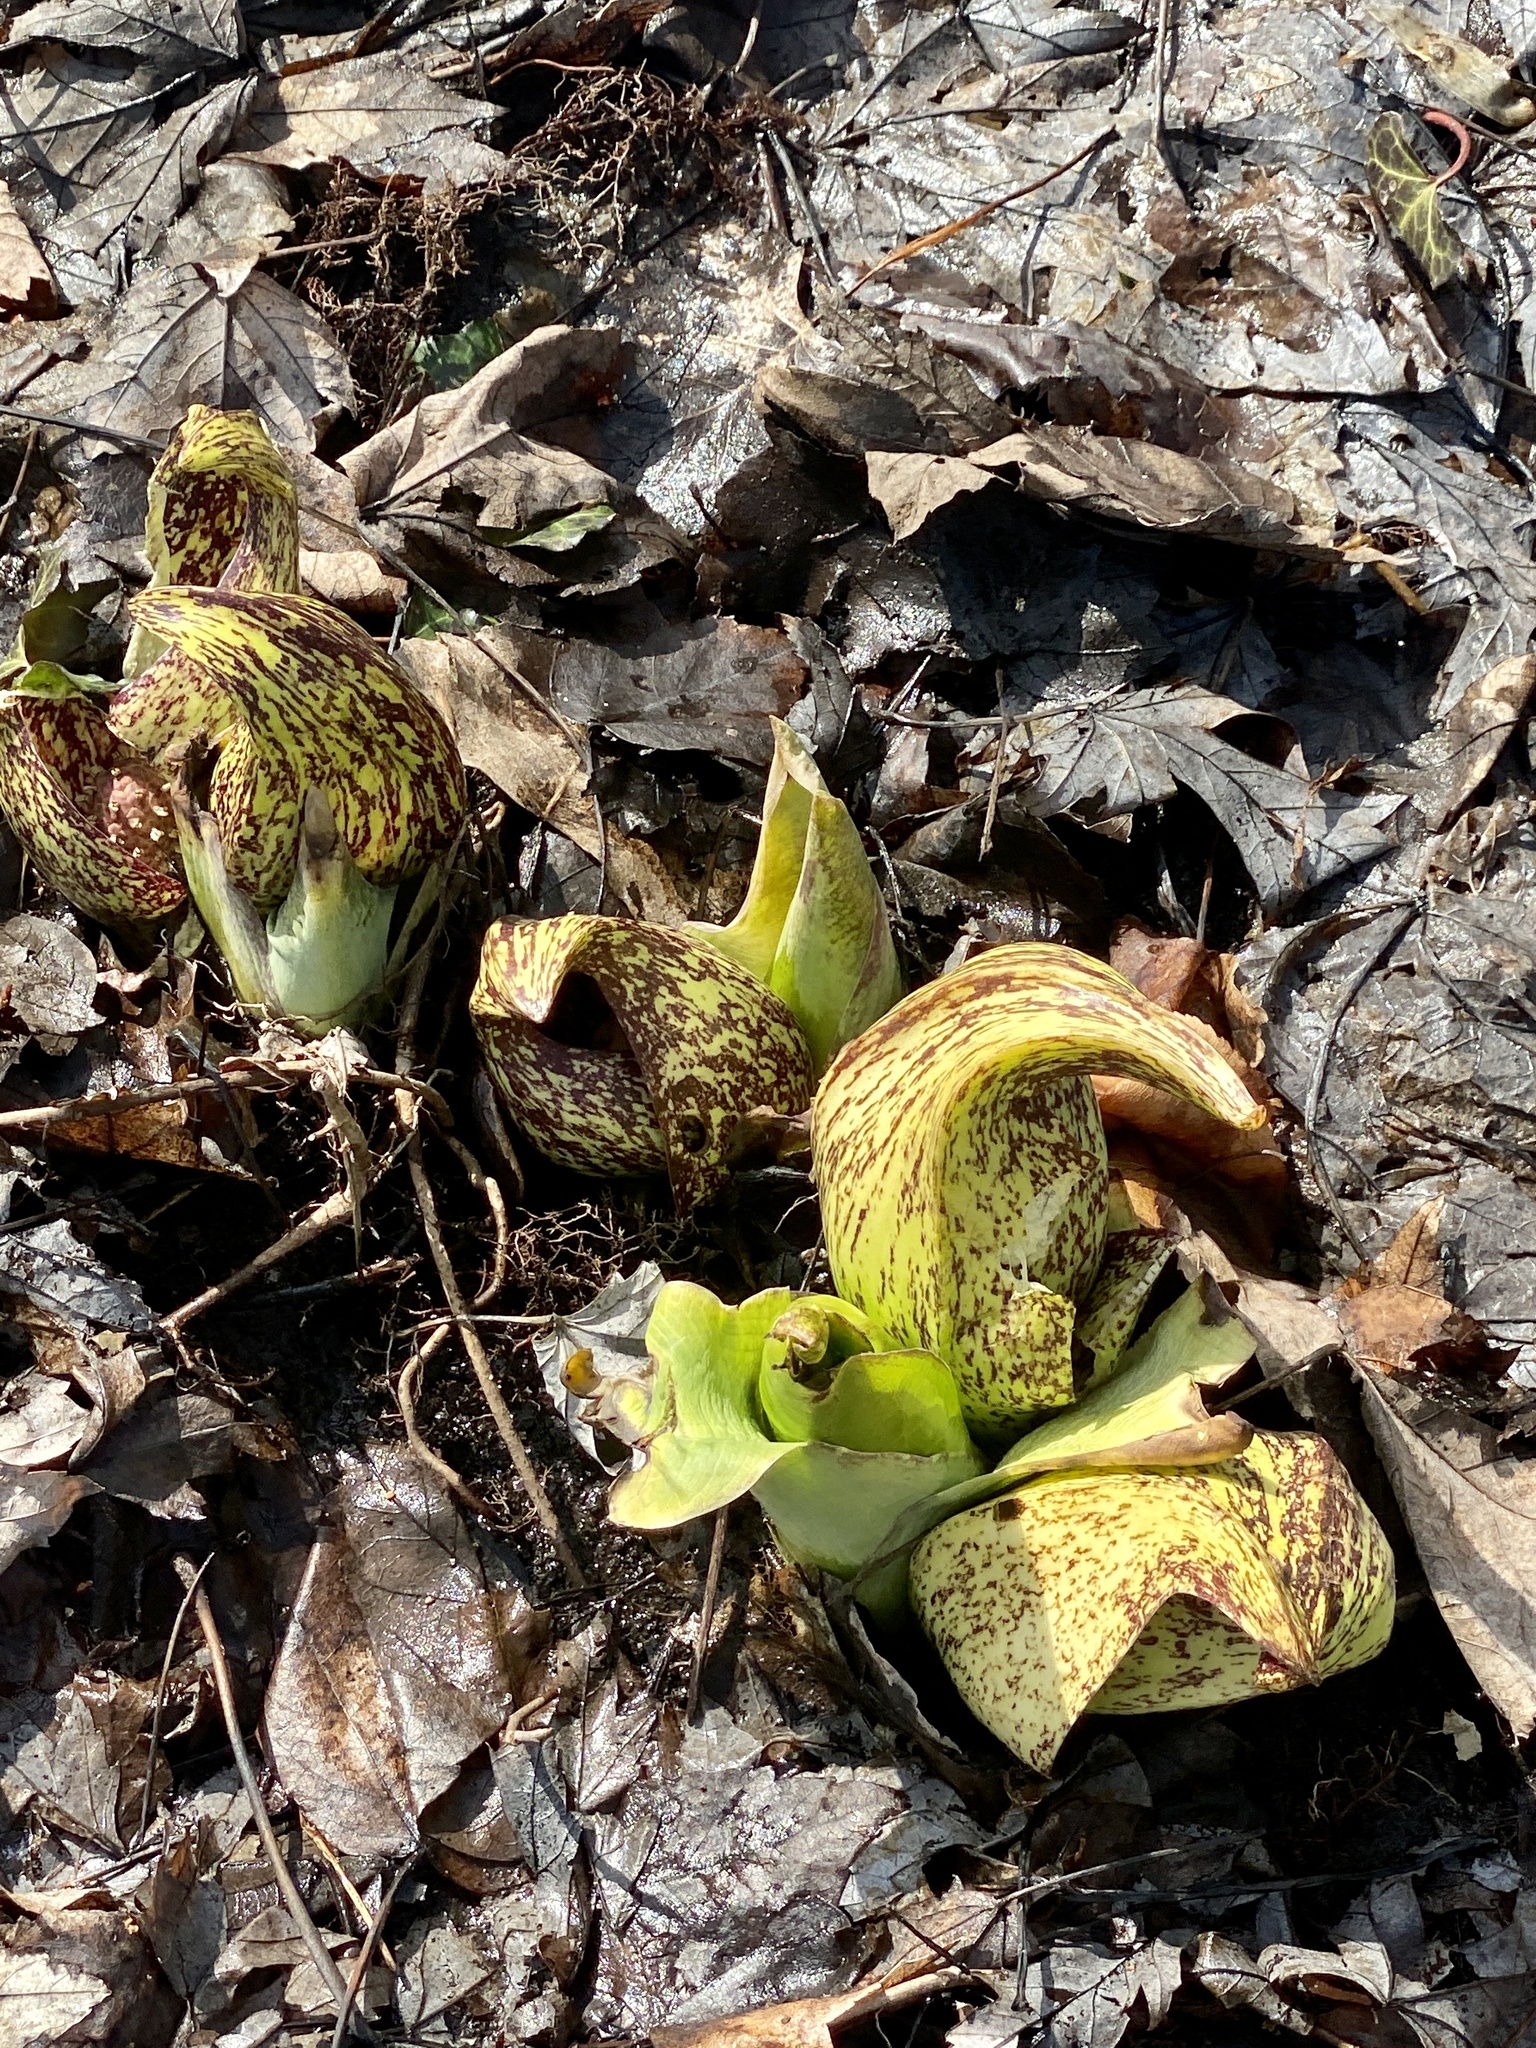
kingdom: Plantae
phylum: Tracheophyta
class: Liliopsida
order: Alismatales
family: Araceae
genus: Symplocarpus
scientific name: Symplocarpus foetidus
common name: Eastern skunk cabbage
